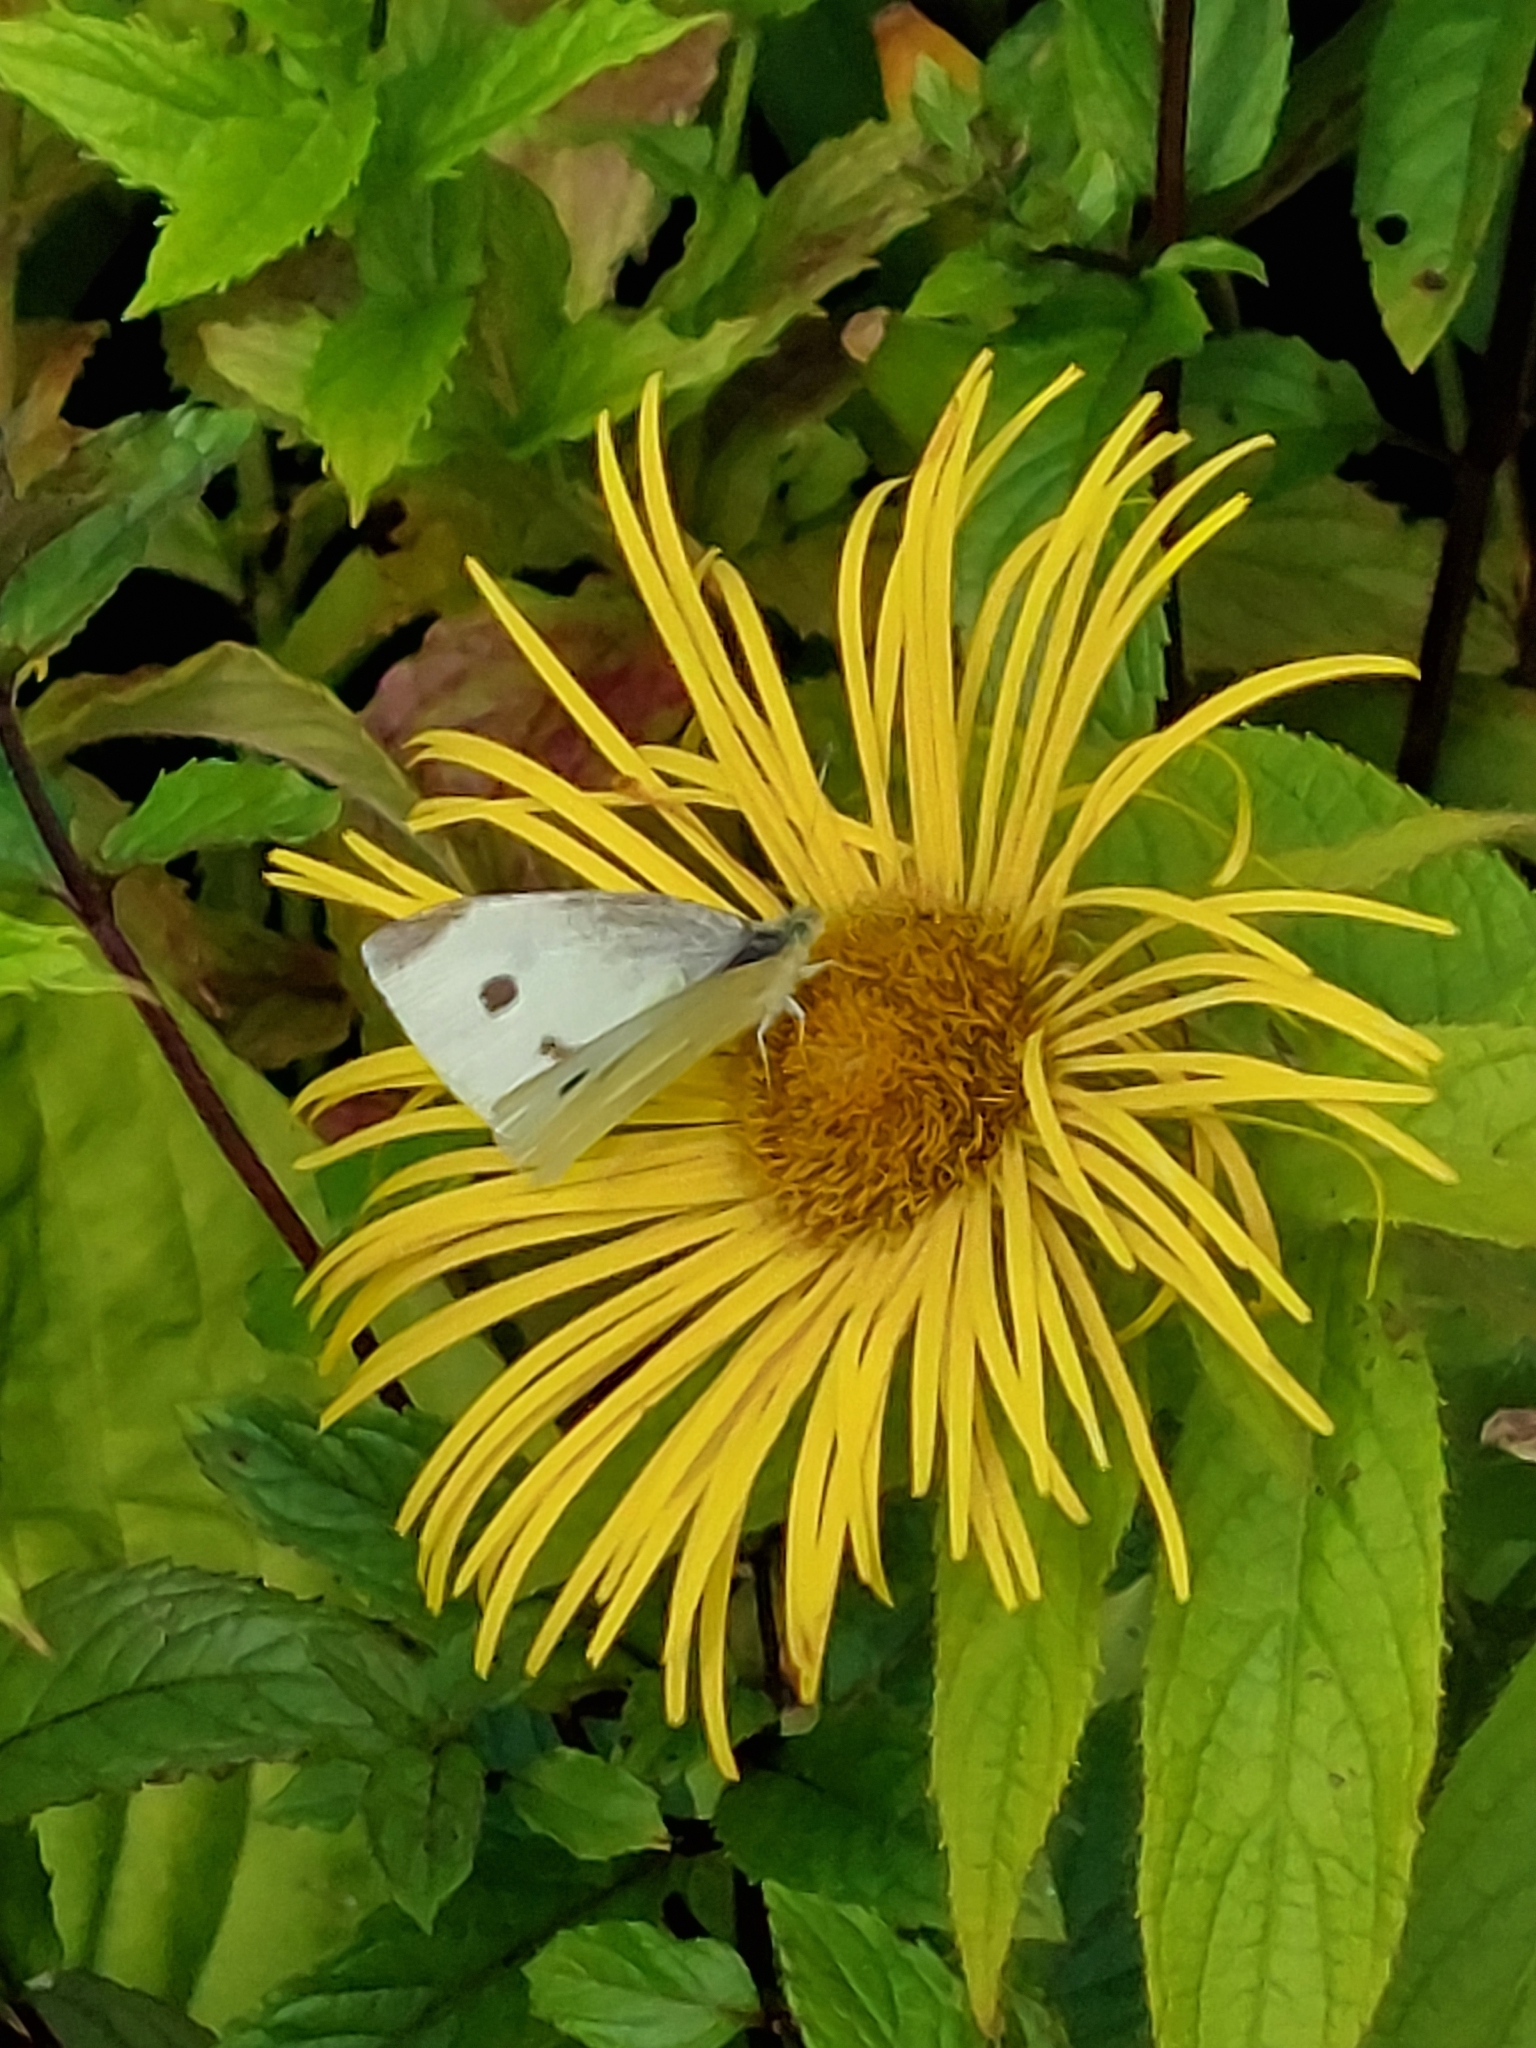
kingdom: Animalia
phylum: Arthropoda
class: Insecta
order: Lepidoptera
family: Pieridae
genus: Pieris
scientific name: Pieris rapae
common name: Small white
